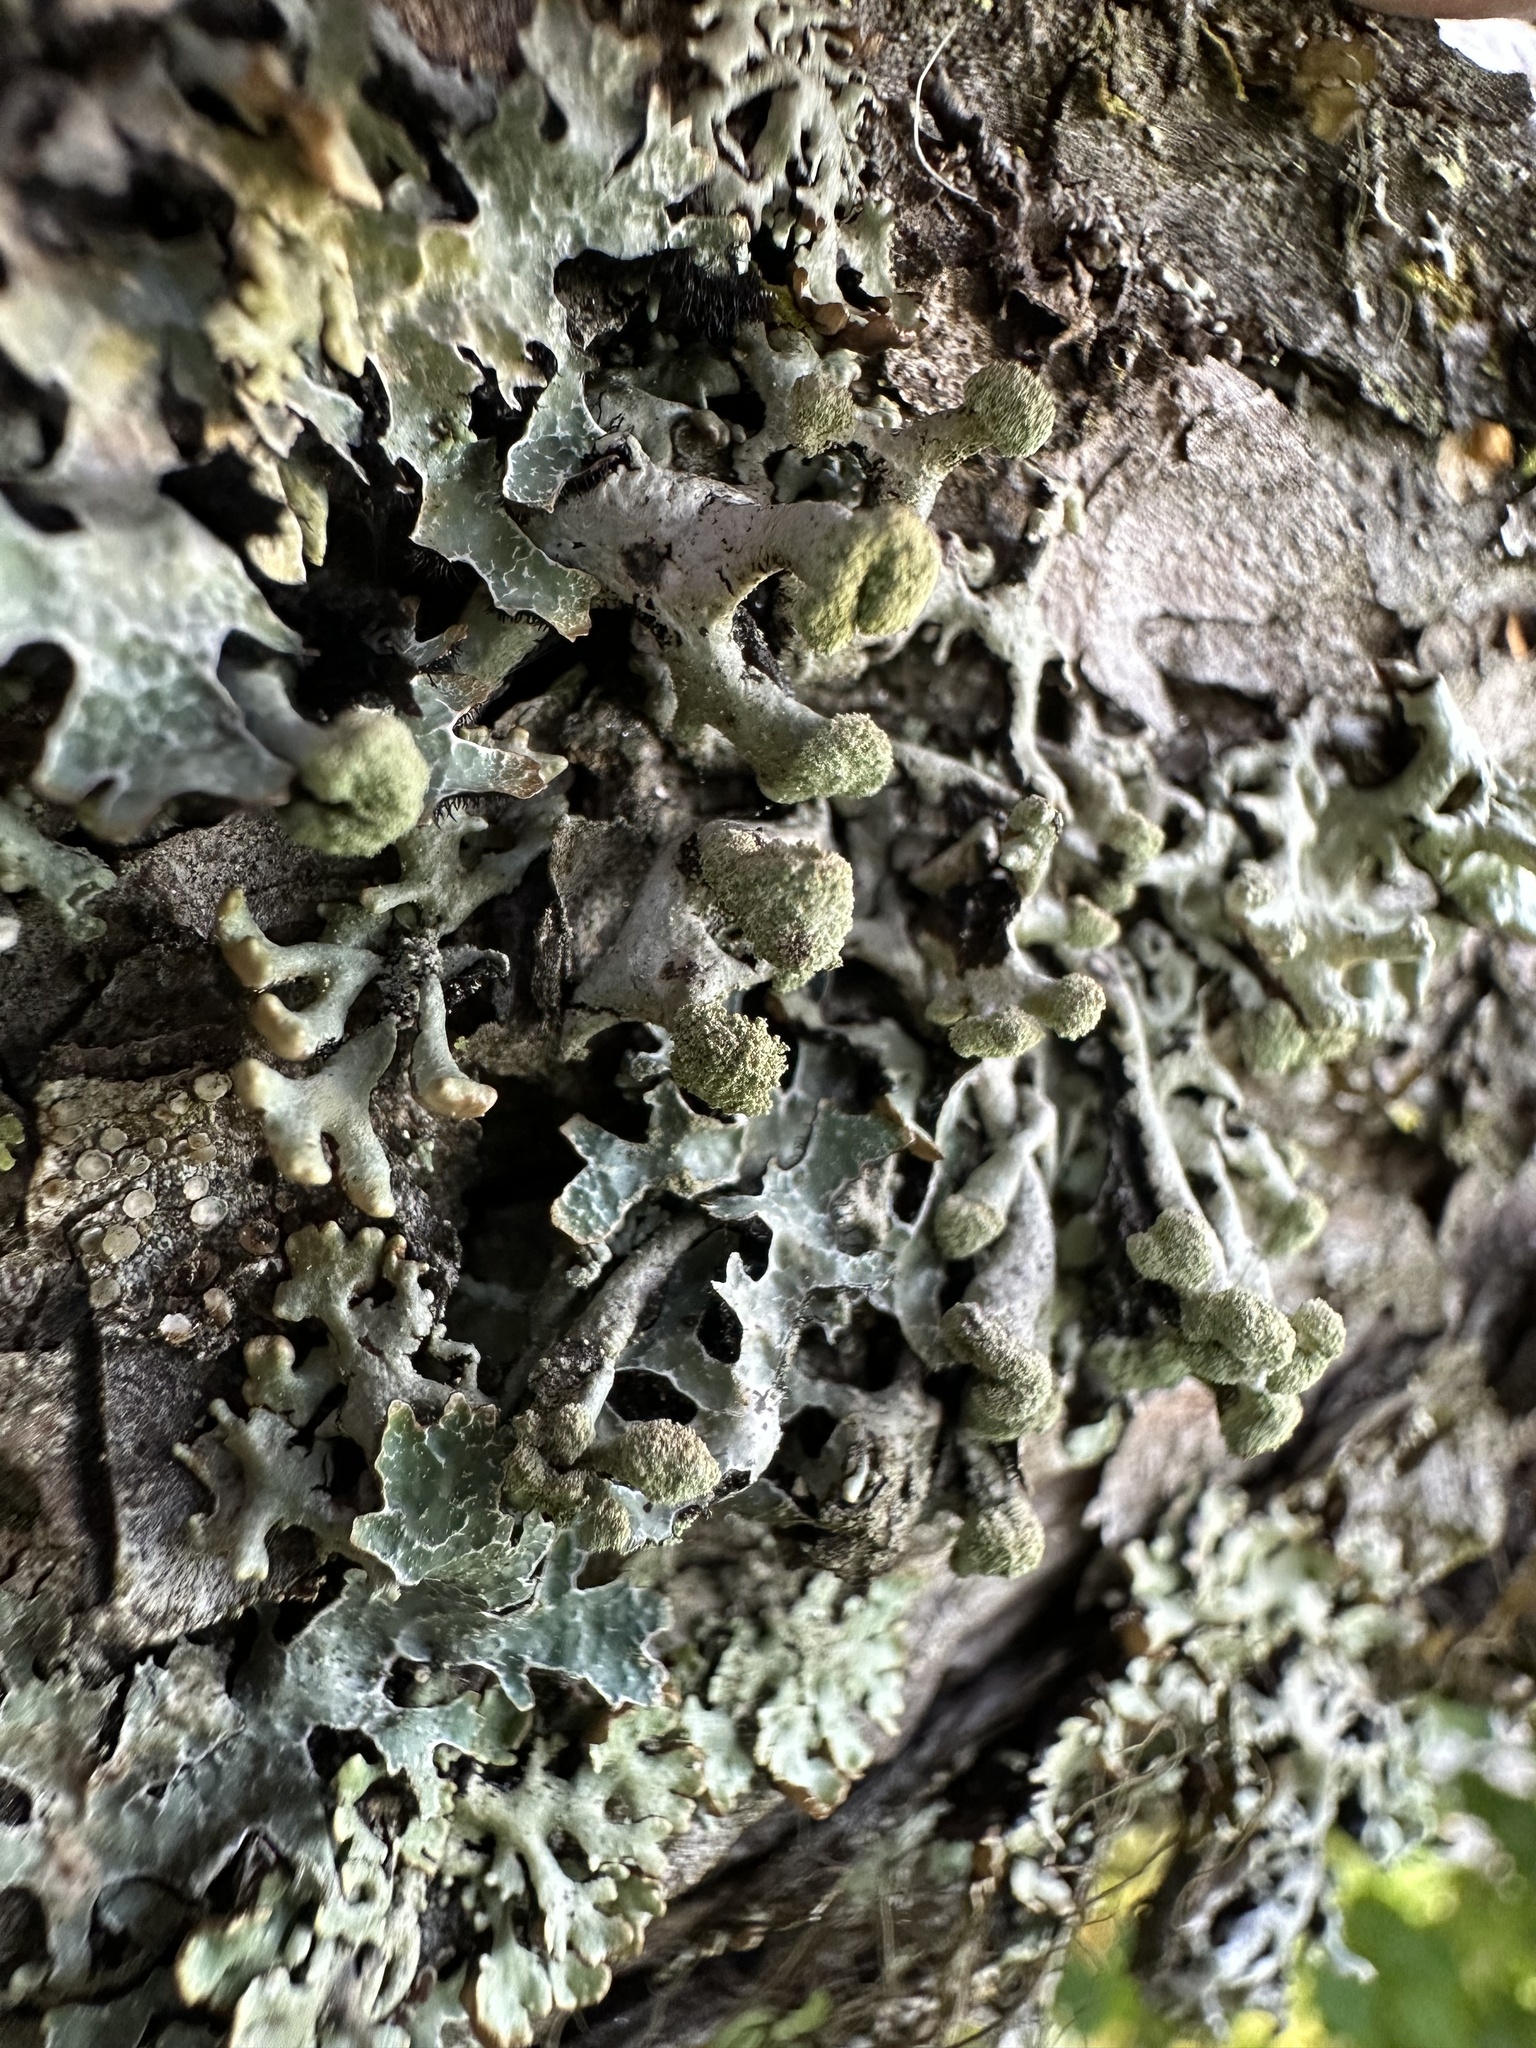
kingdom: Fungi
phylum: Ascomycota
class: Lecanoromycetes
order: Lecanorales
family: Parmeliaceae
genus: Hypogymnia
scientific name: Hypogymnia tubulosa
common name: Powder-headed tube lichen
